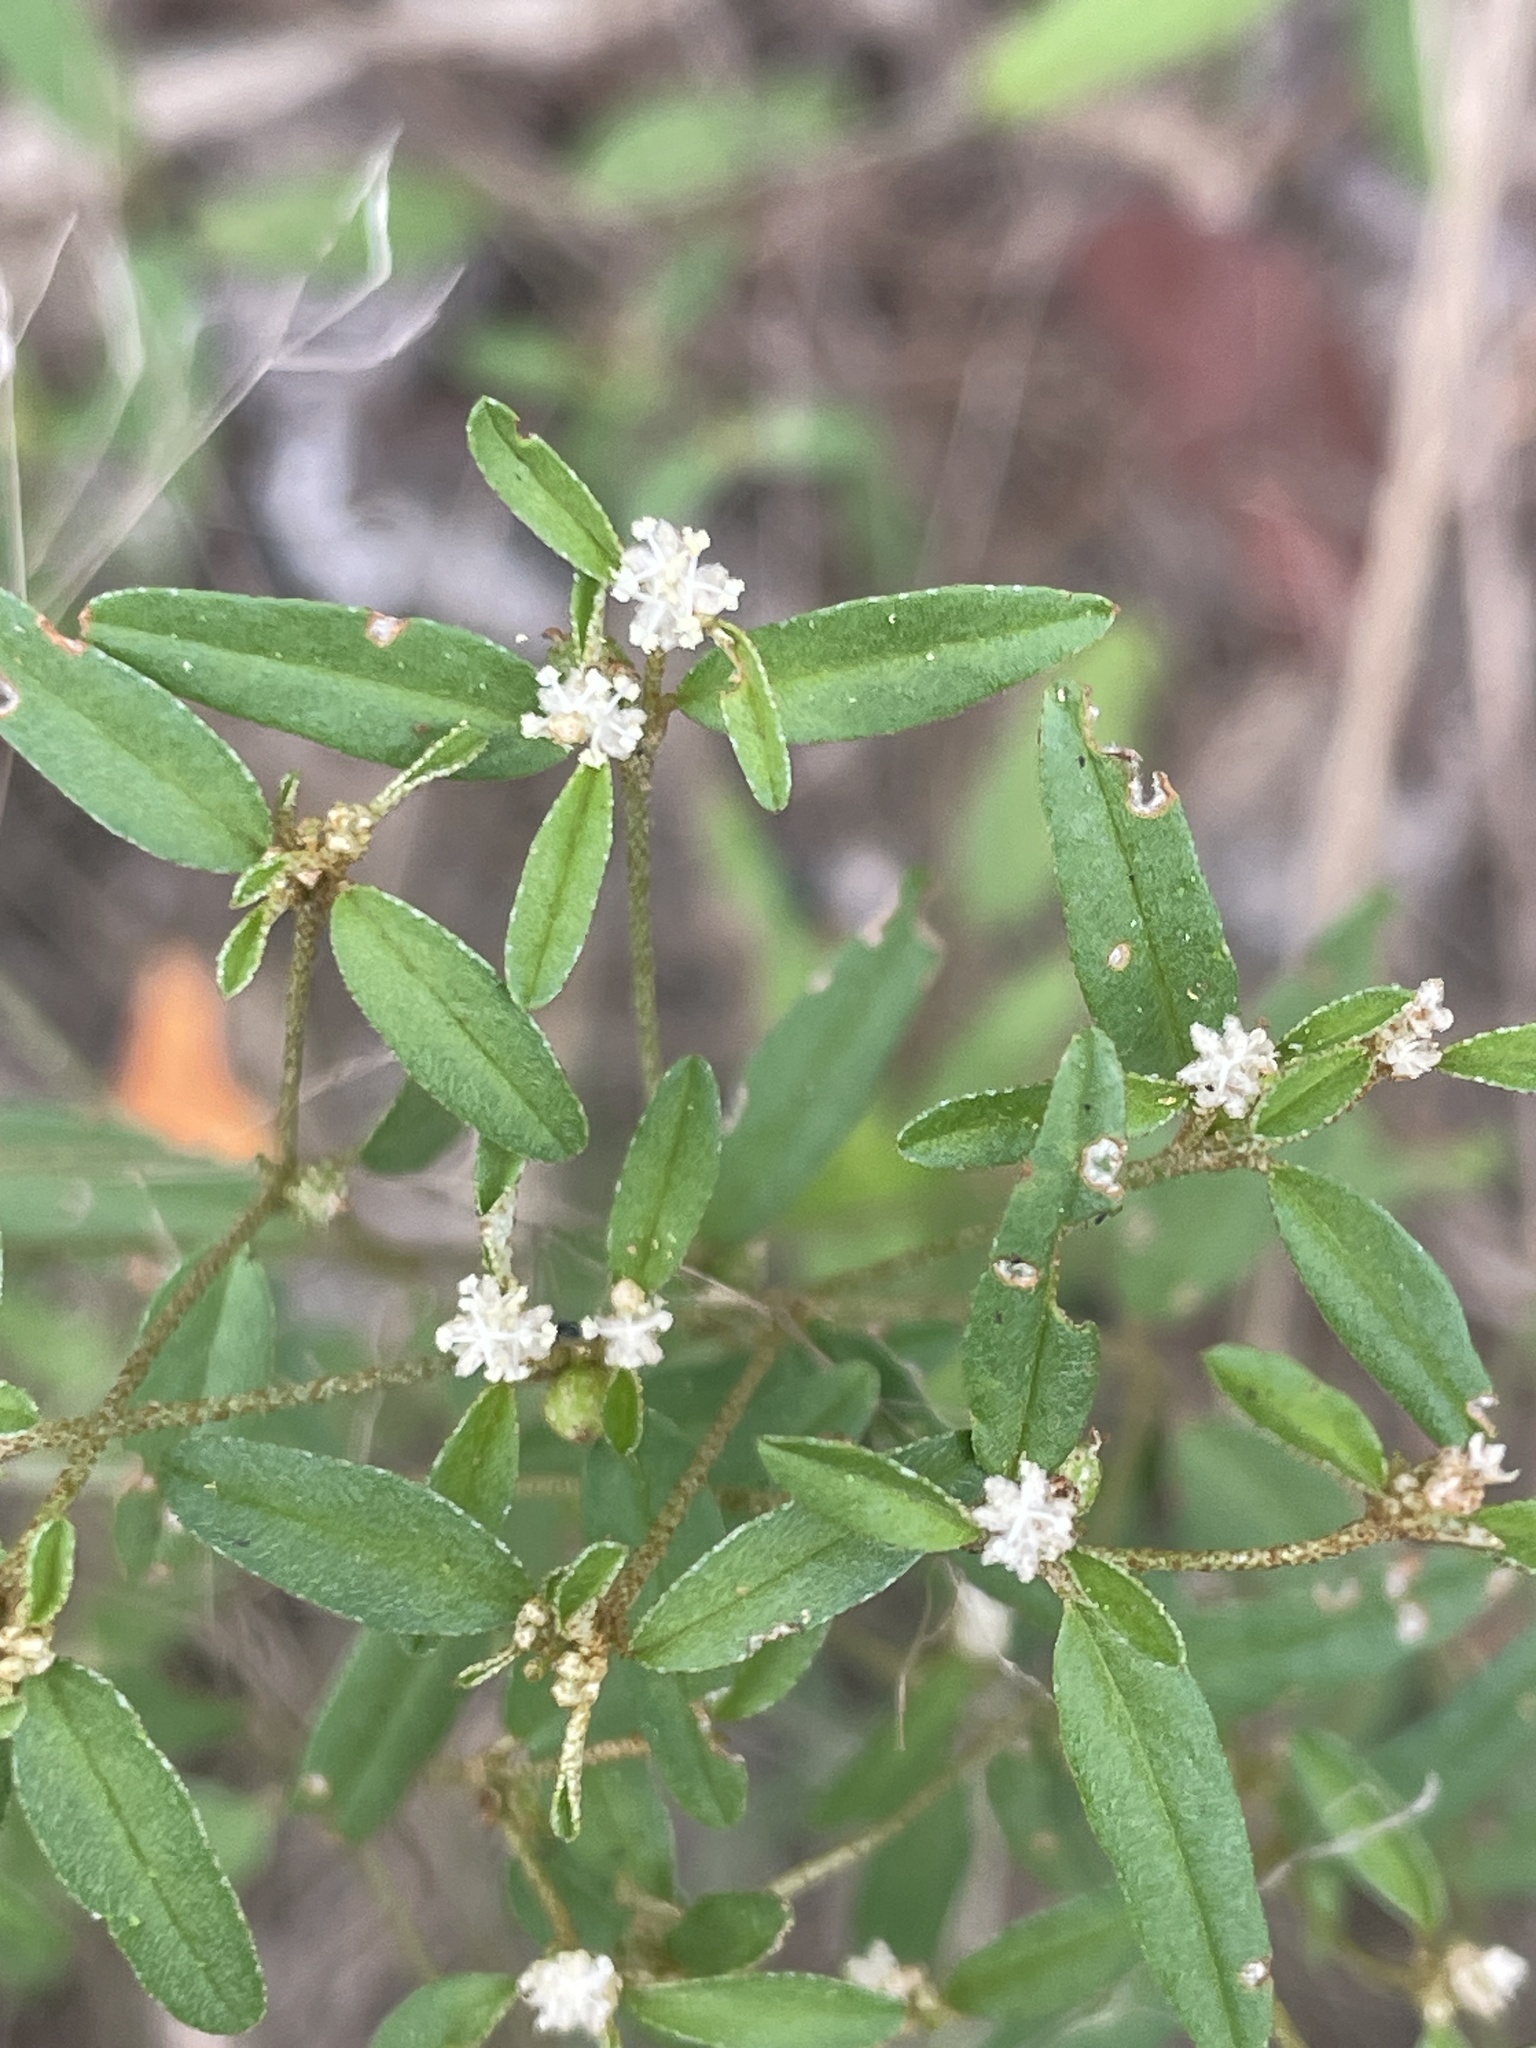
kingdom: Plantae
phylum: Tracheophyta
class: Magnoliopsida
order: Malpighiales
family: Euphorbiaceae
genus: Croton
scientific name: Croton michauxii
